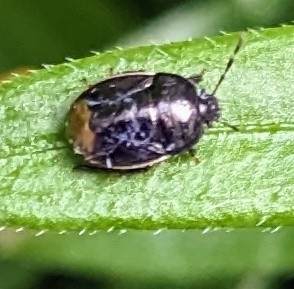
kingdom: Animalia
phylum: Arthropoda
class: Insecta
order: Hemiptera
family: Cydnidae
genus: Legnotus
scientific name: Legnotus limbosus
